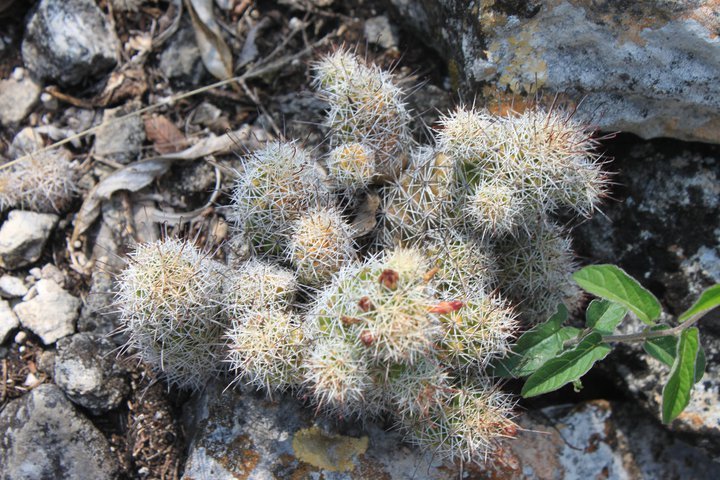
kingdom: Plantae
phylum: Tracheophyta
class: Magnoliopsida
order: Caryophyllales
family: Cactaceae
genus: Mammillaria
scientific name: Mammillaria tonalensis
